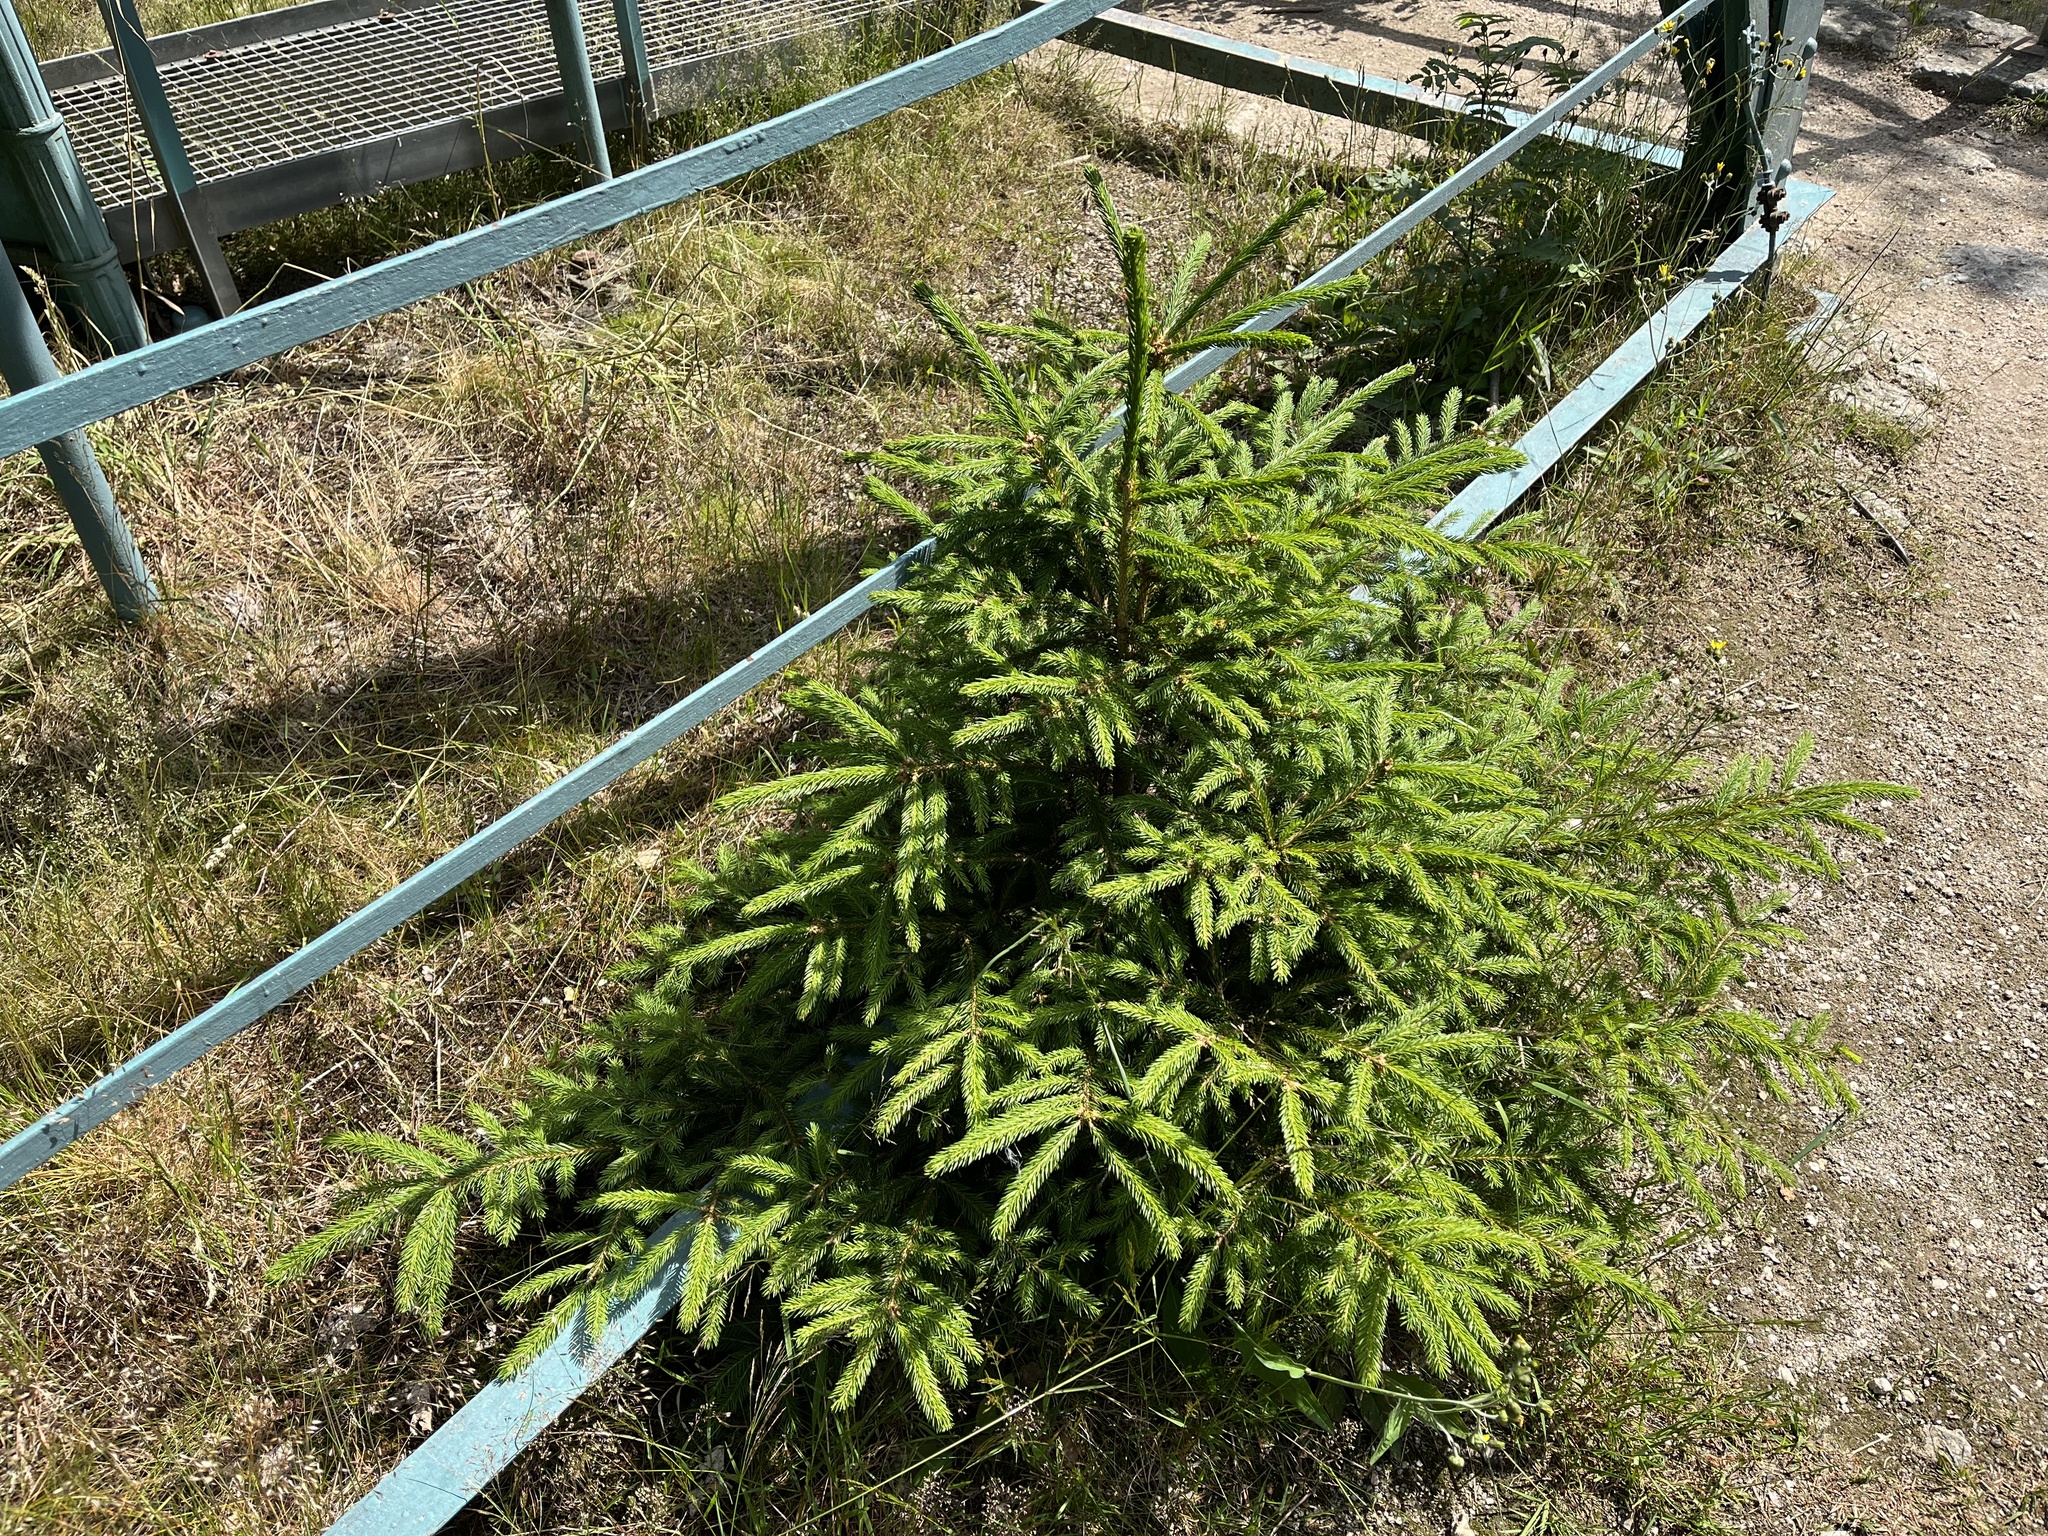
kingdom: Plantae
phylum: Tracheophyta
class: Pinopsida
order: Pinales
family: Pinaceae
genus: Picea
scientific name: Picea abies
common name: Norway spruce
